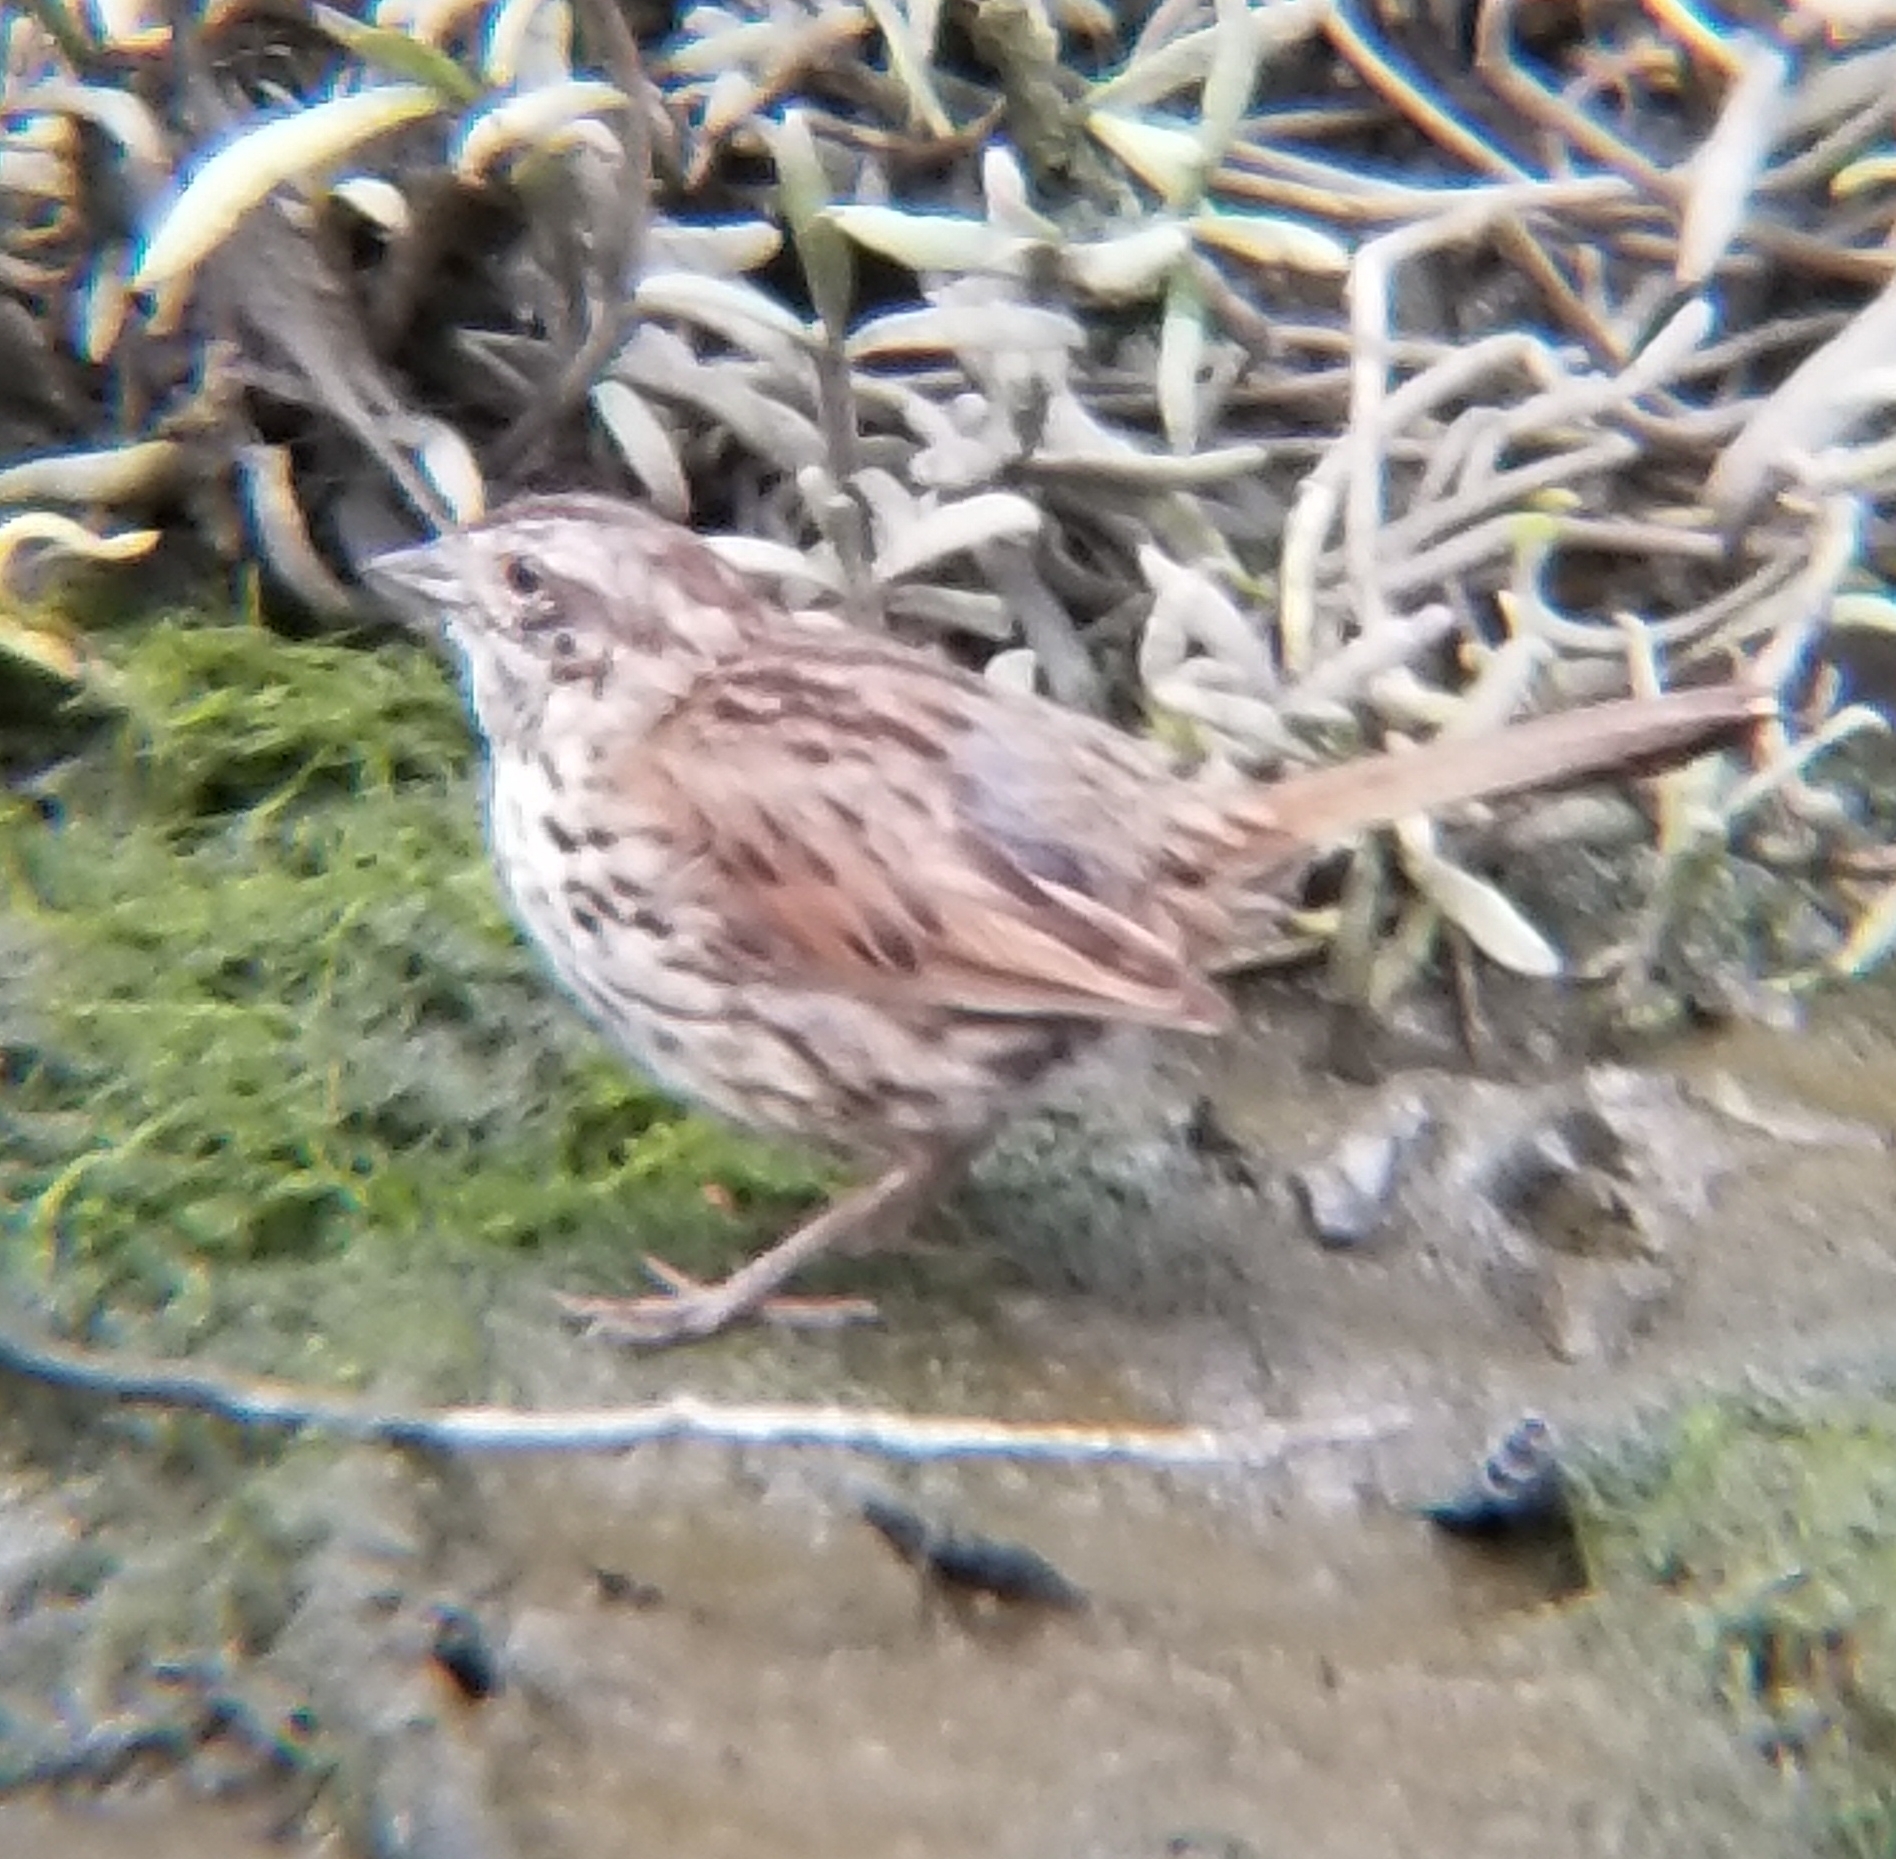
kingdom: Animalia
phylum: Chordata
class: Aves
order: Passeriformes
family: Passerellidae
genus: Melospiza
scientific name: Melospiza melodia
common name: Song sparrow
